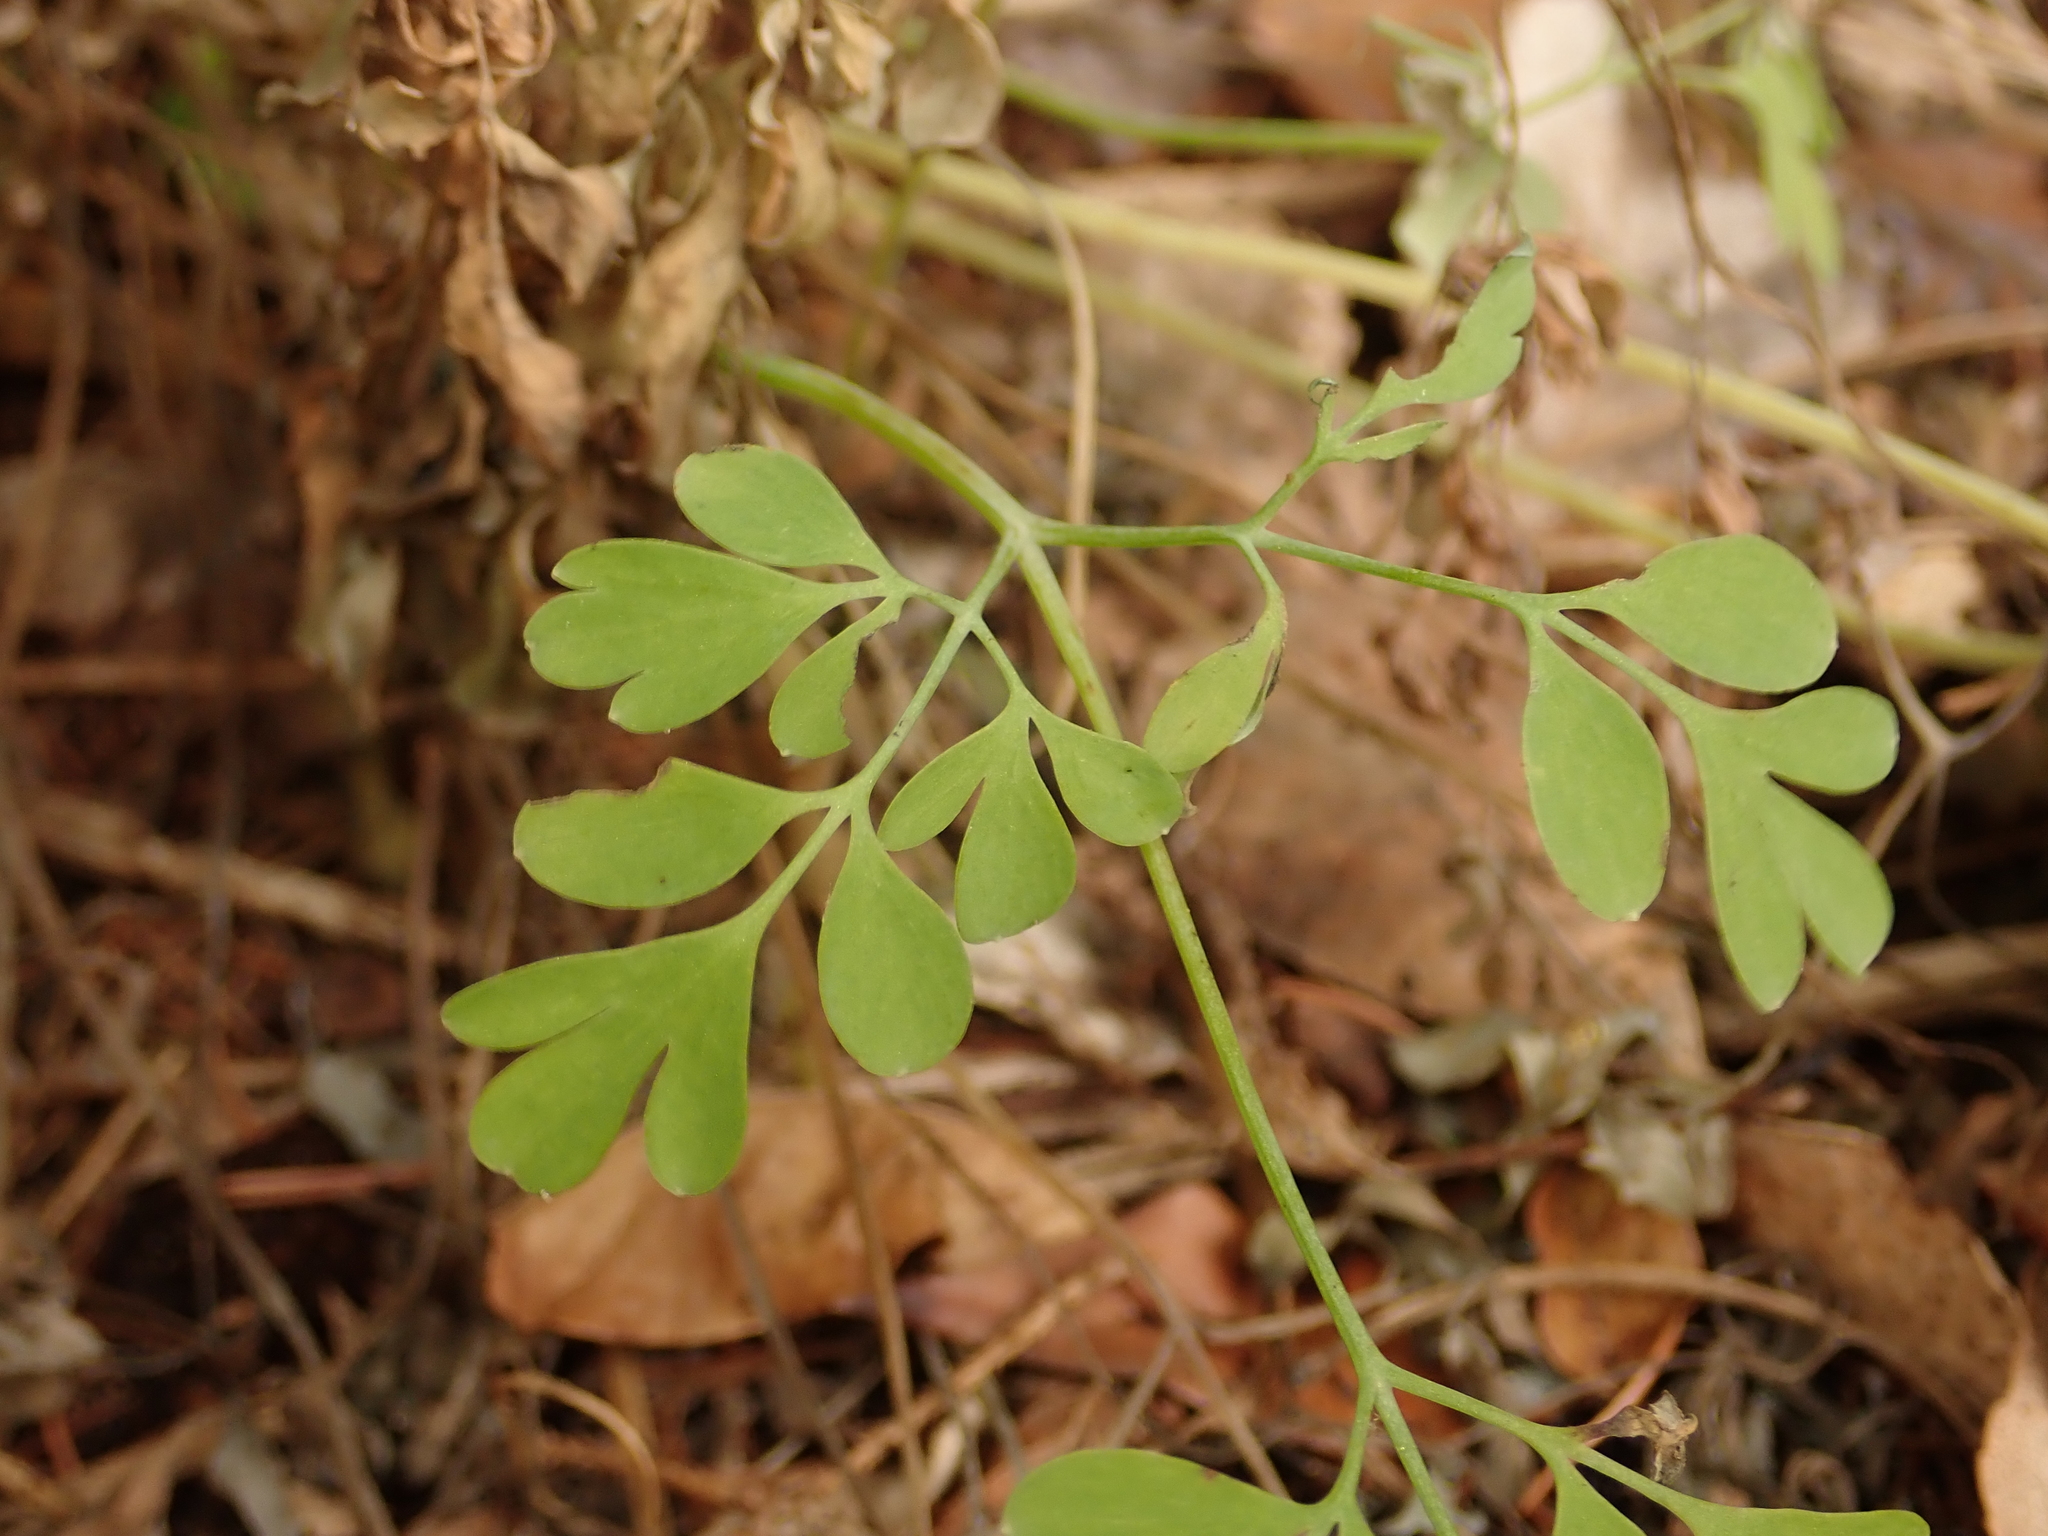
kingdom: Plantae
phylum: Tracheophyta
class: Magnoliopsida
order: Ranunculales
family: Papaveraceae
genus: Pseudofumaria
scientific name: Pseudofumaria lutea
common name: Yellow corydalis
